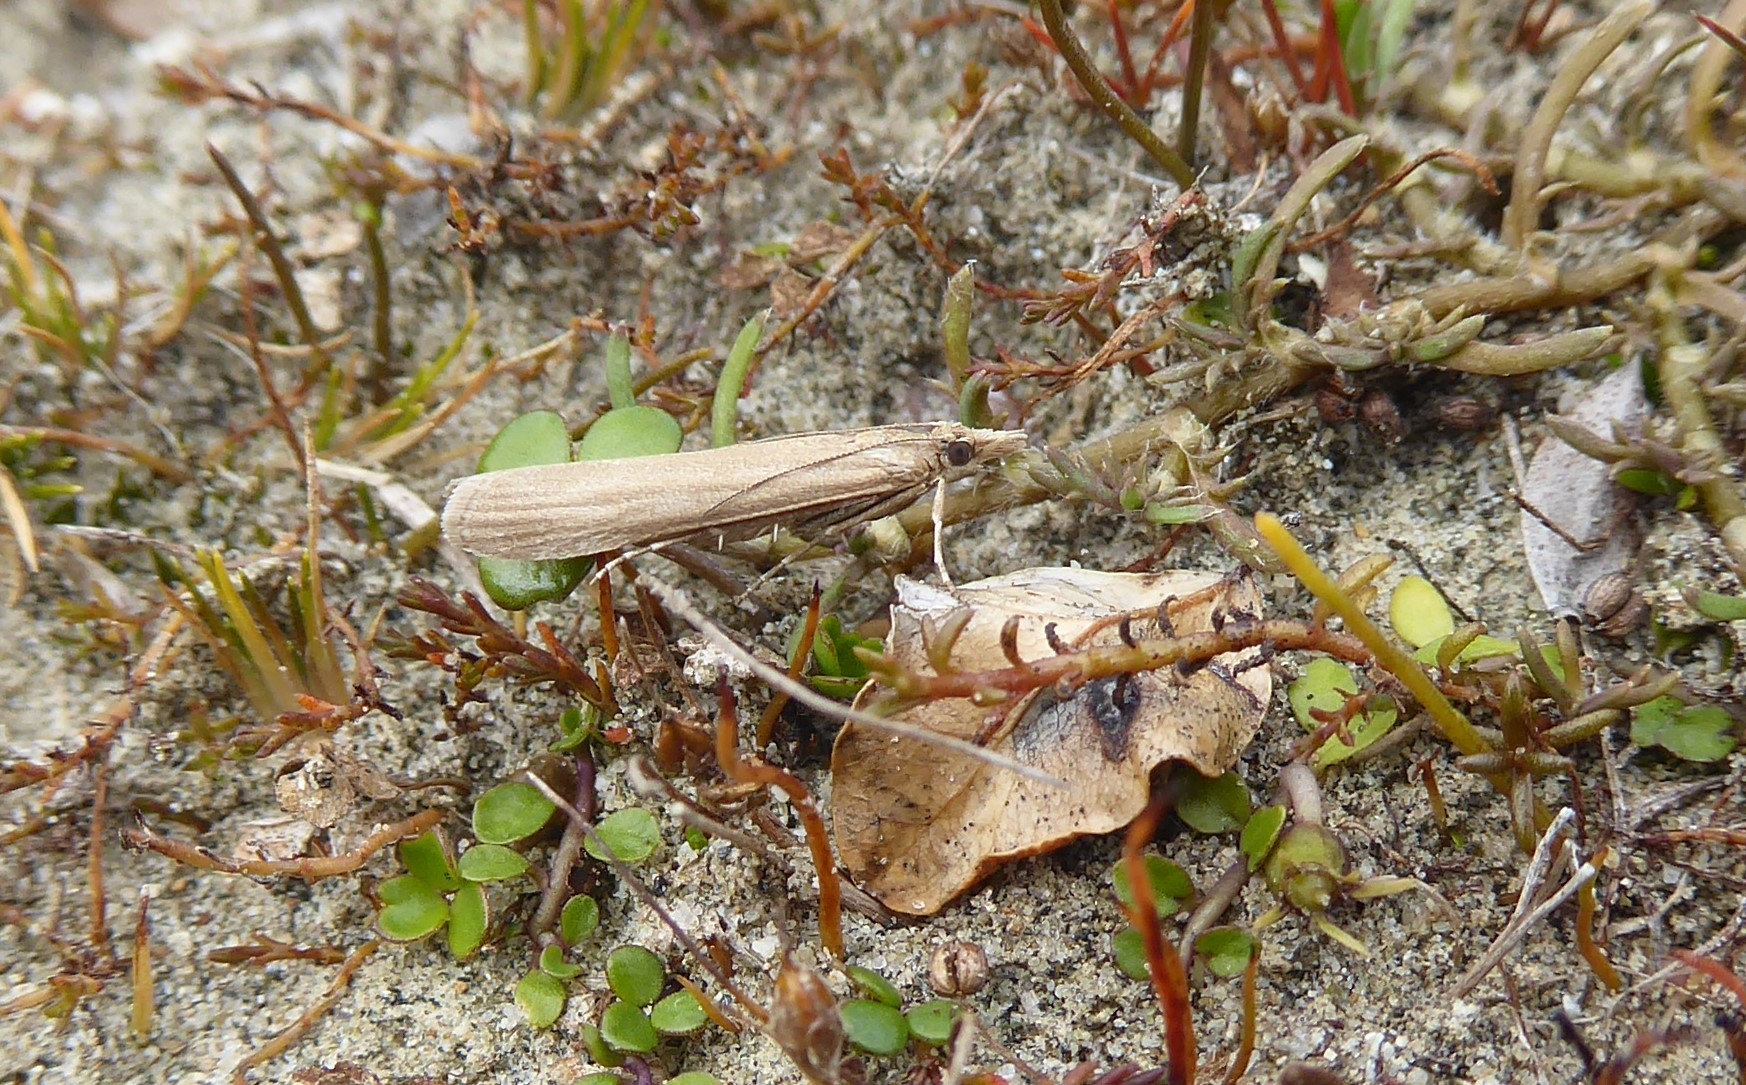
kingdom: Animalia
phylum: Arthropoda
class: Insecta
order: Lepidoptera
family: Crambidae
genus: Scoparia
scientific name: Scoparia augastis
